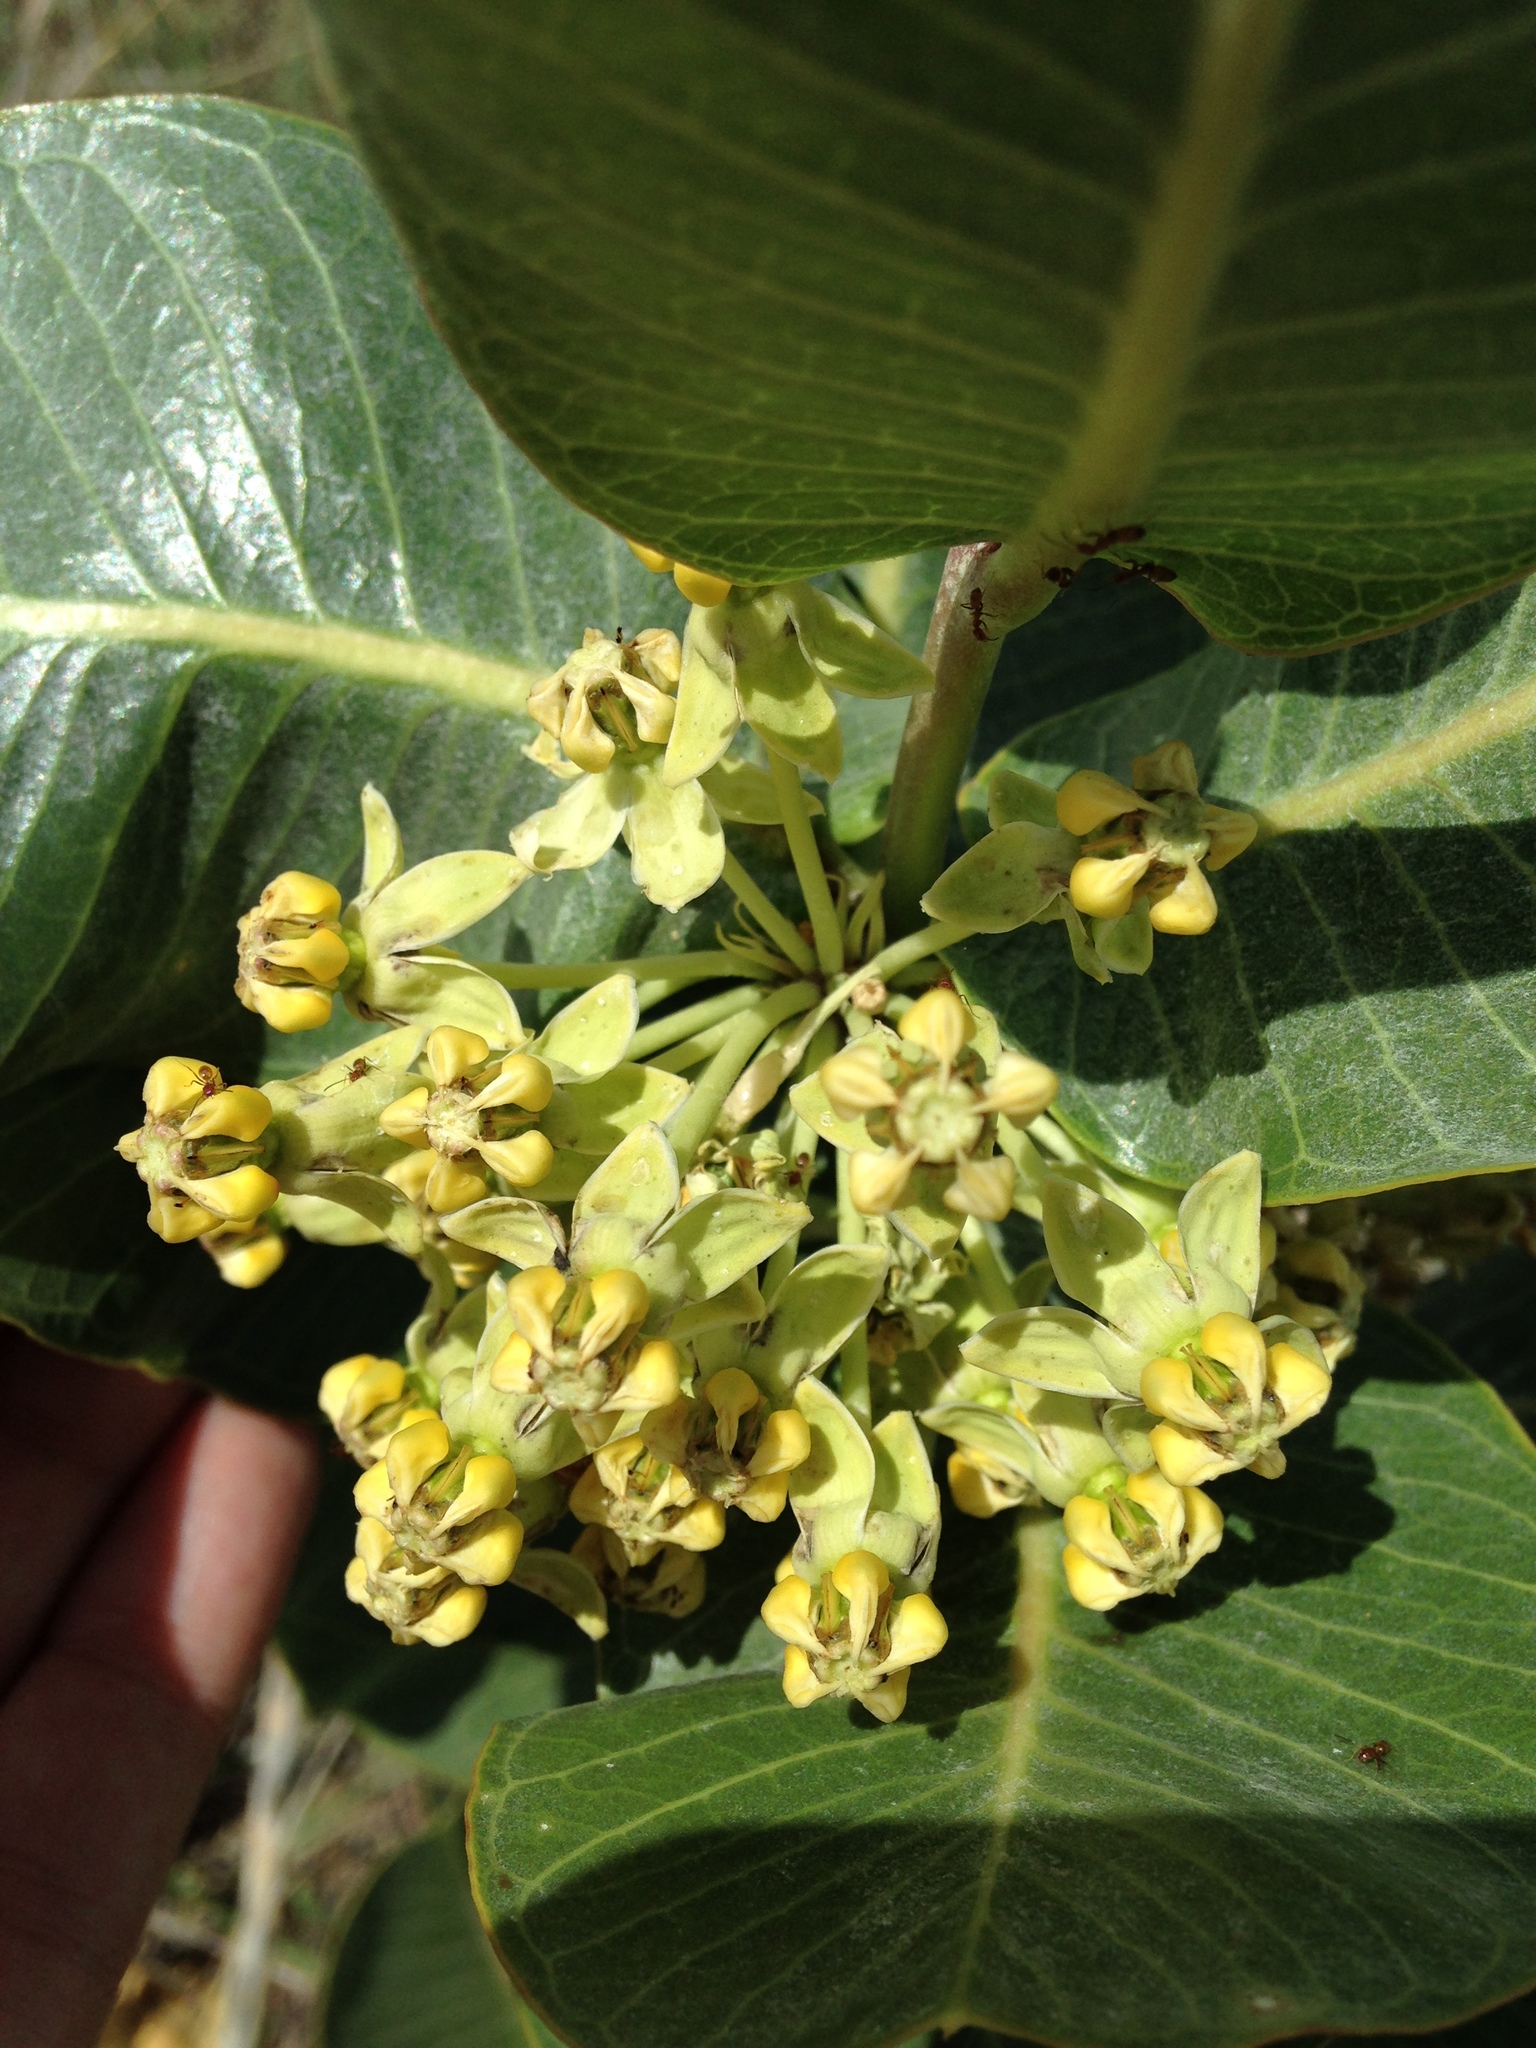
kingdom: Plantae
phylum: Tracheophyta
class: Magnoliopsida
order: Gentianales
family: Apocynaceae
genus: Asclepias
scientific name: Asclepias latifolia
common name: Broadleaf milkweed
